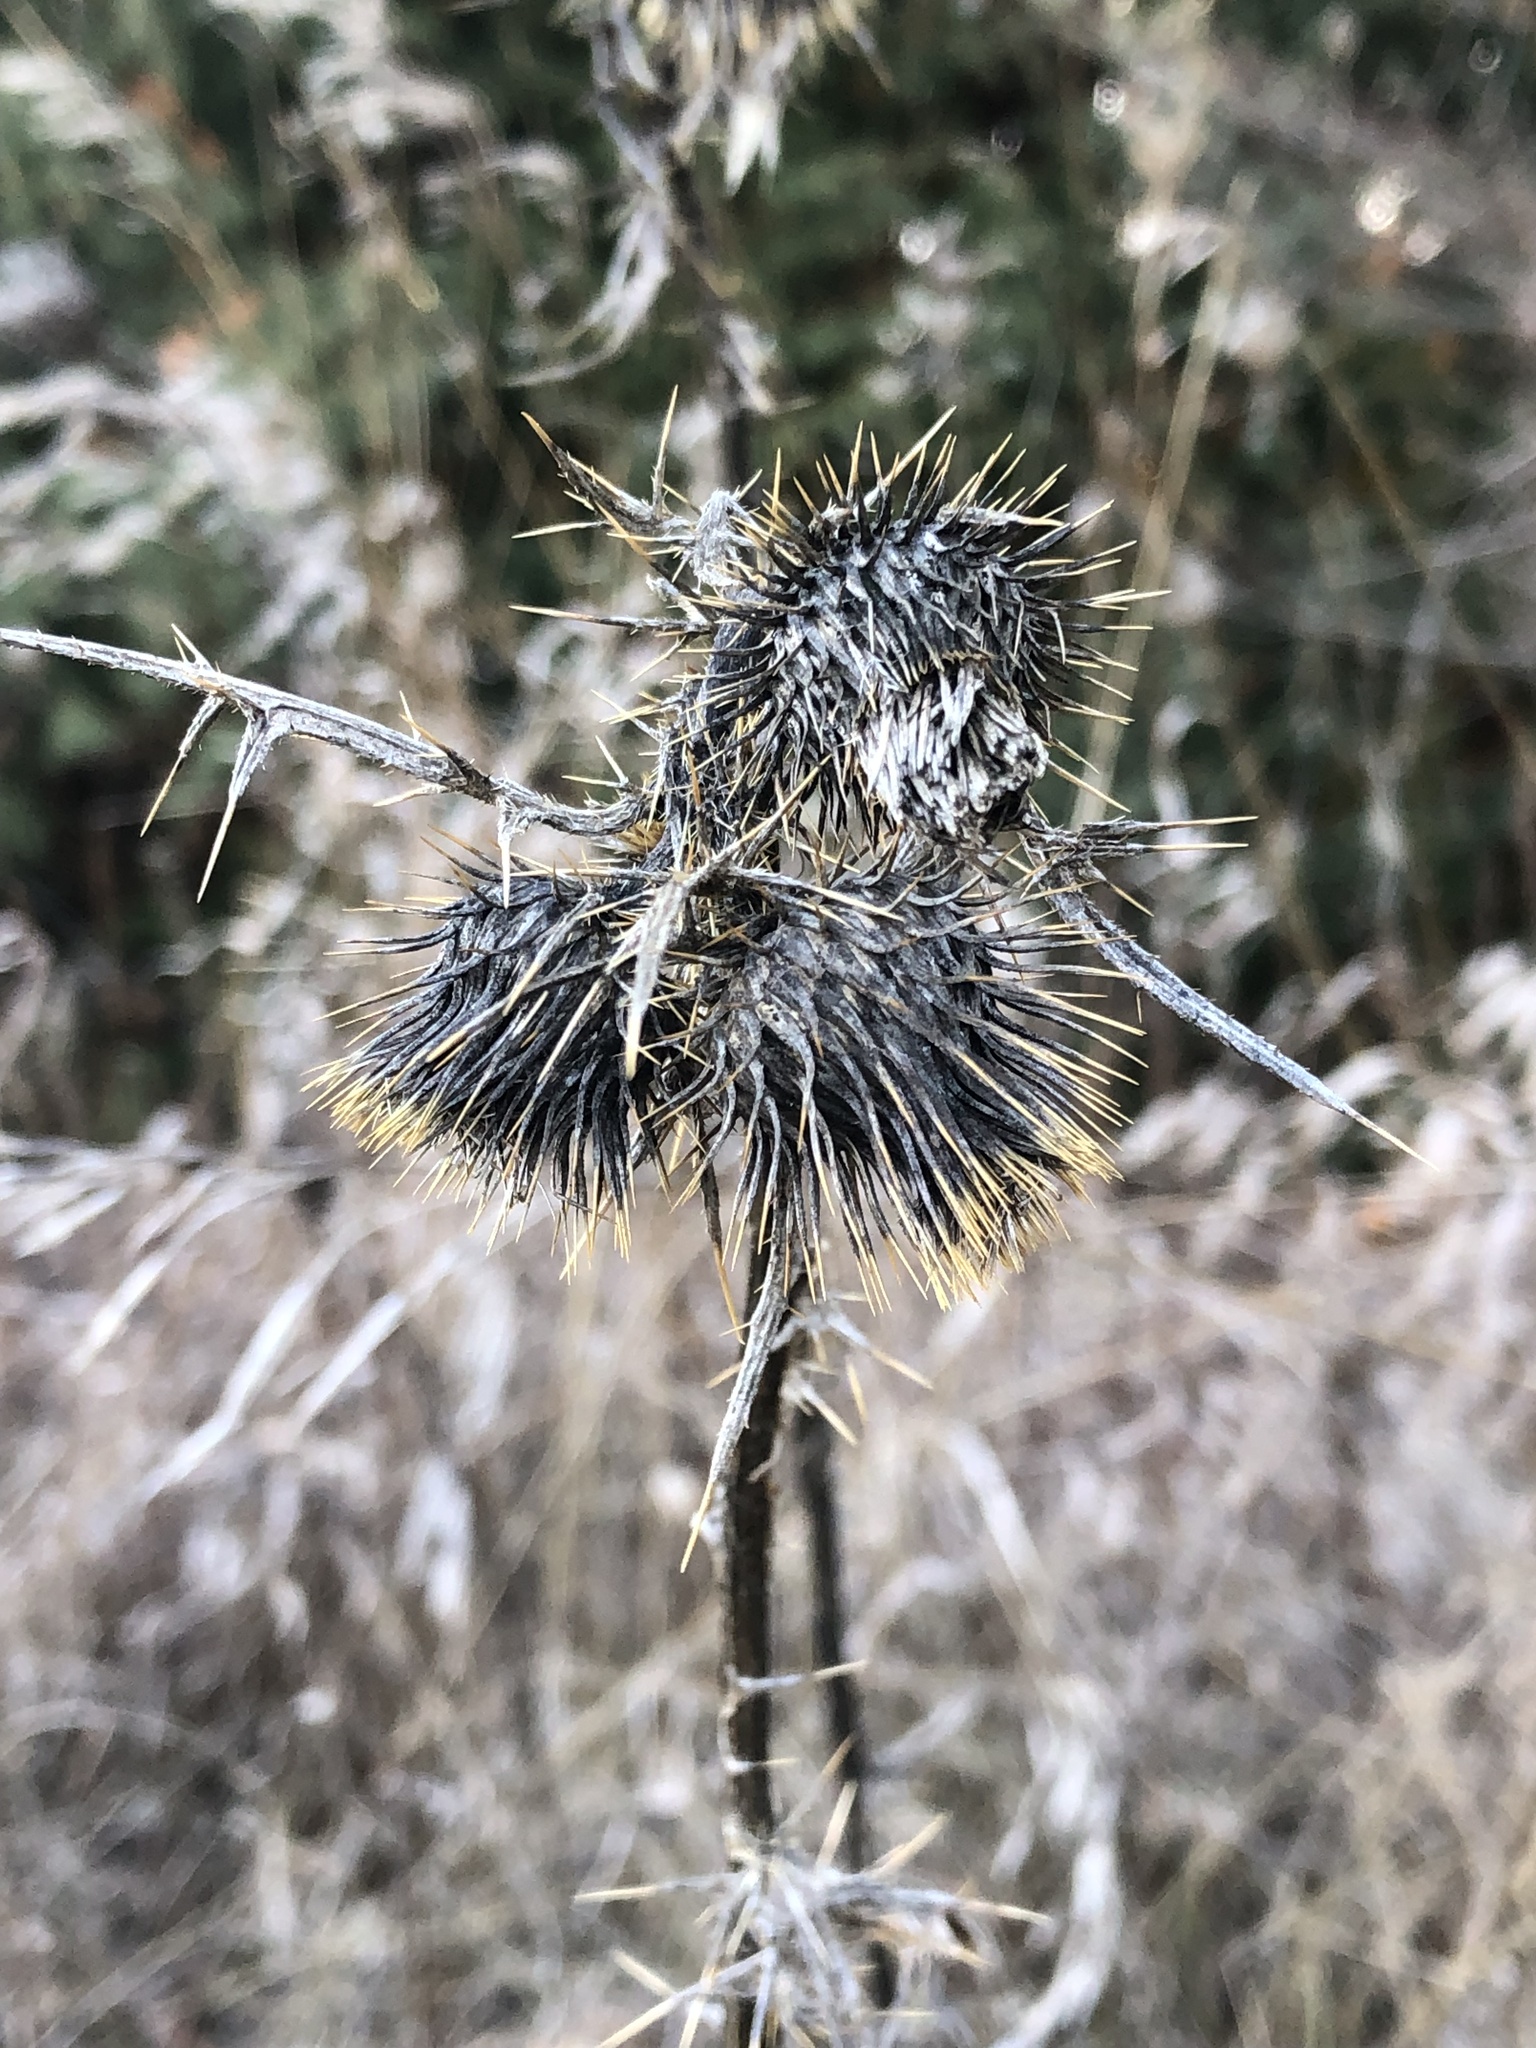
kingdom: Plantae
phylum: Tracheophyta
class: Magnoliopsida
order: Asterales
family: Asteraceae
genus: Cirsium
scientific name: Cirsium vulgare
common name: Bull thistle
